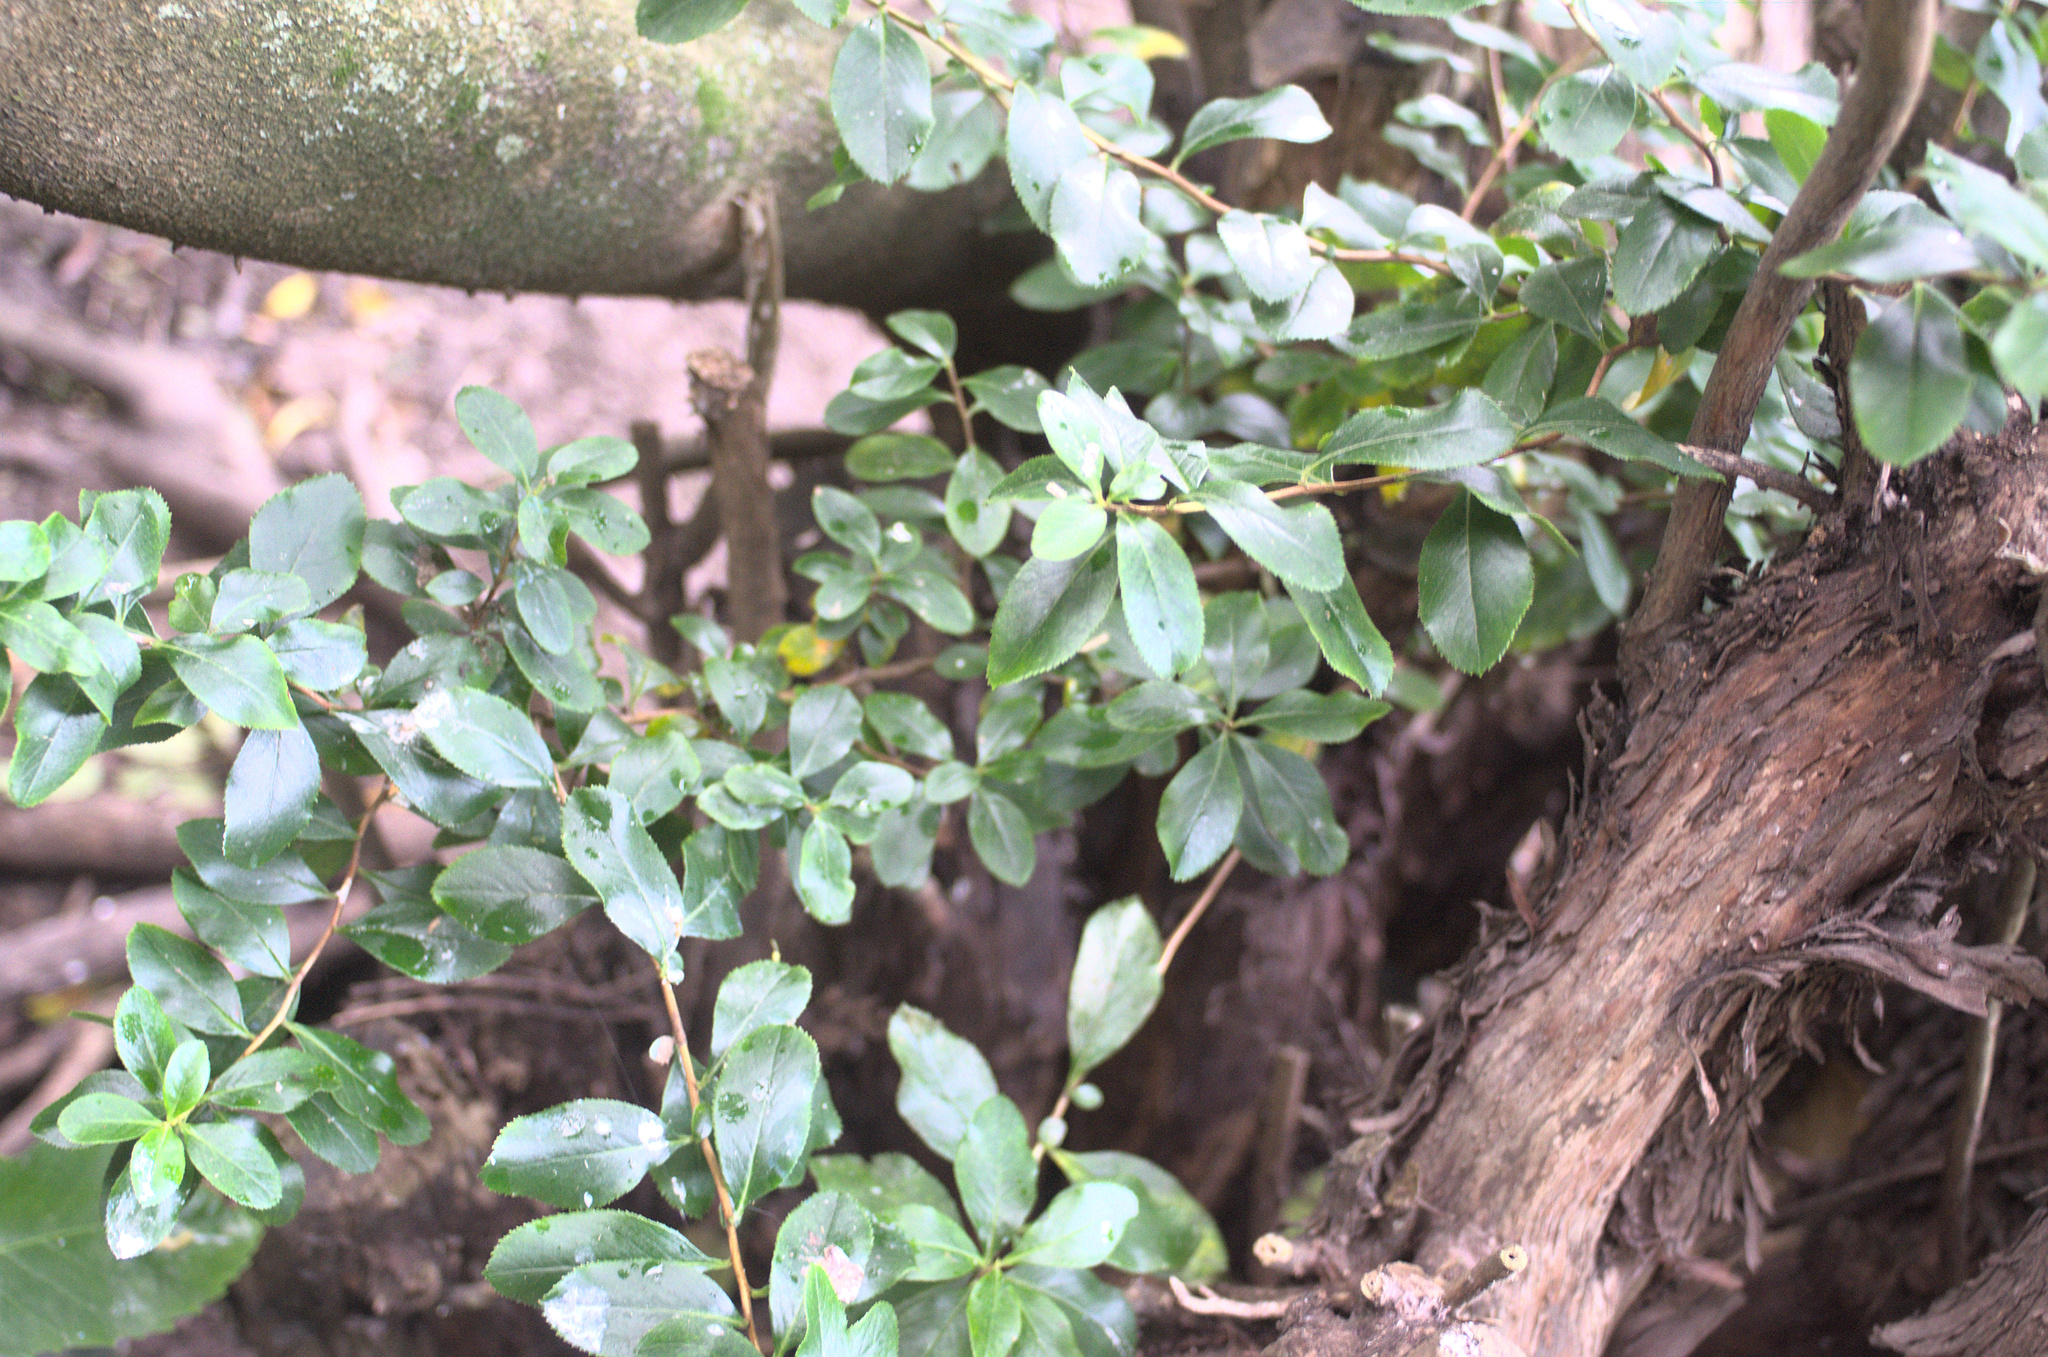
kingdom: Plantae
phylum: Tracheophyta
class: Magnoliopsida
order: Escalloniales
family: Escalloniaceae
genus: Escallonia
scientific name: Escallonia rubra
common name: Redclaws
